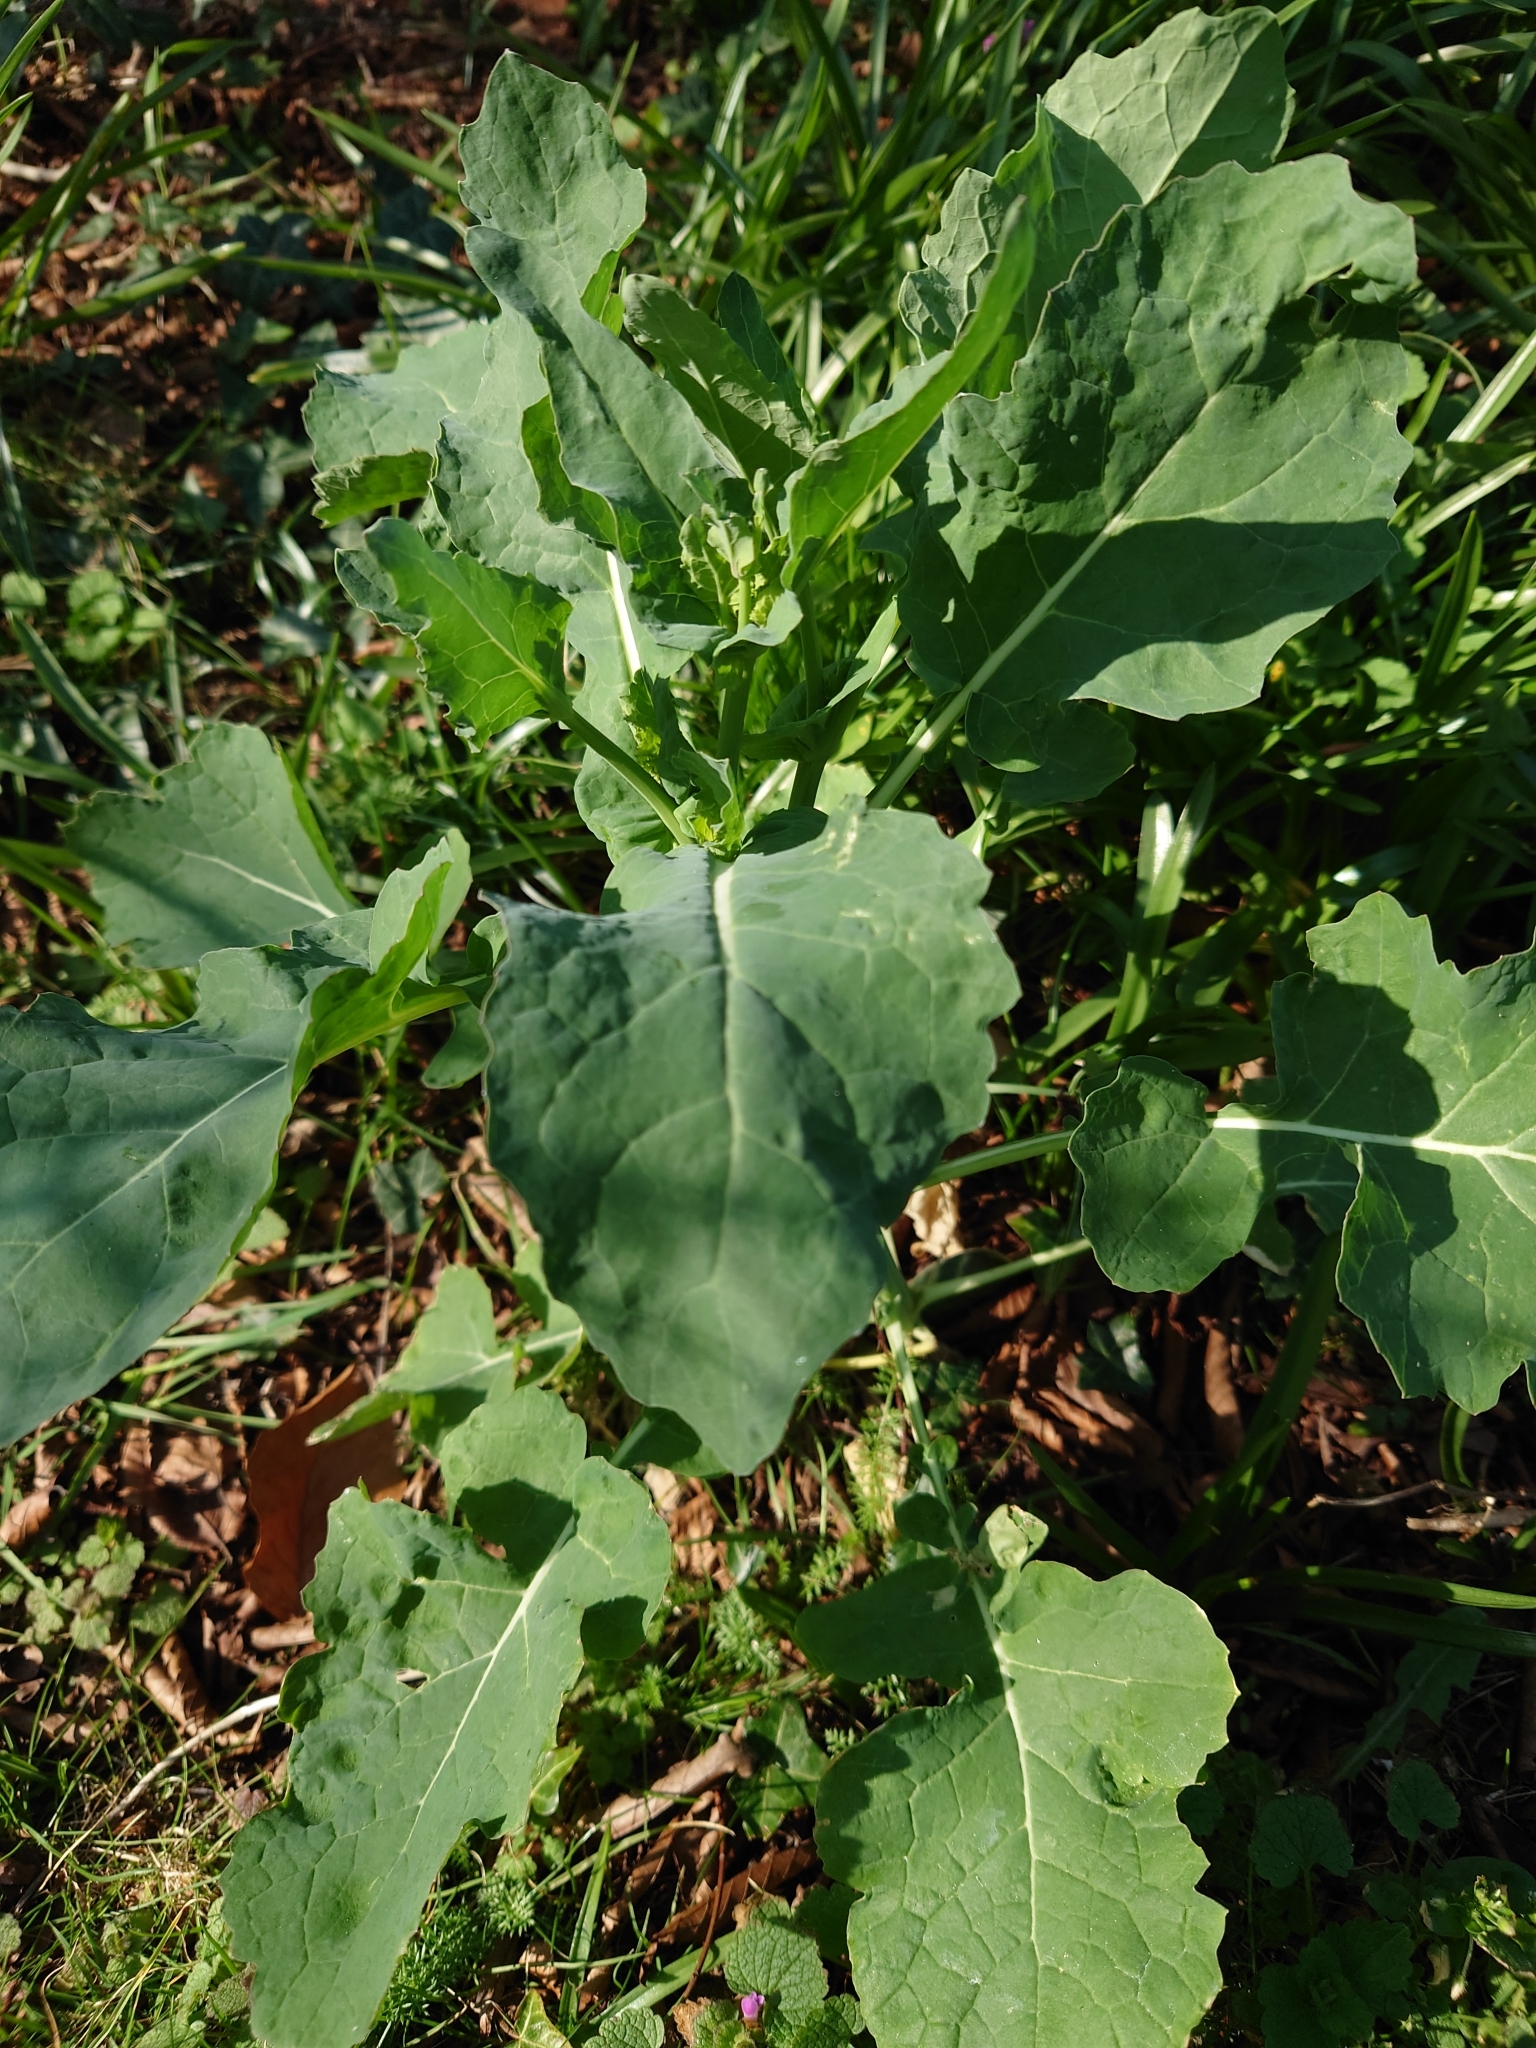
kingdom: Plantae
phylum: Tracheophyta
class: Magnoliopsida
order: Brassicales
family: Brassicaceae
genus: Brassica
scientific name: Brassica napus
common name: Rape
